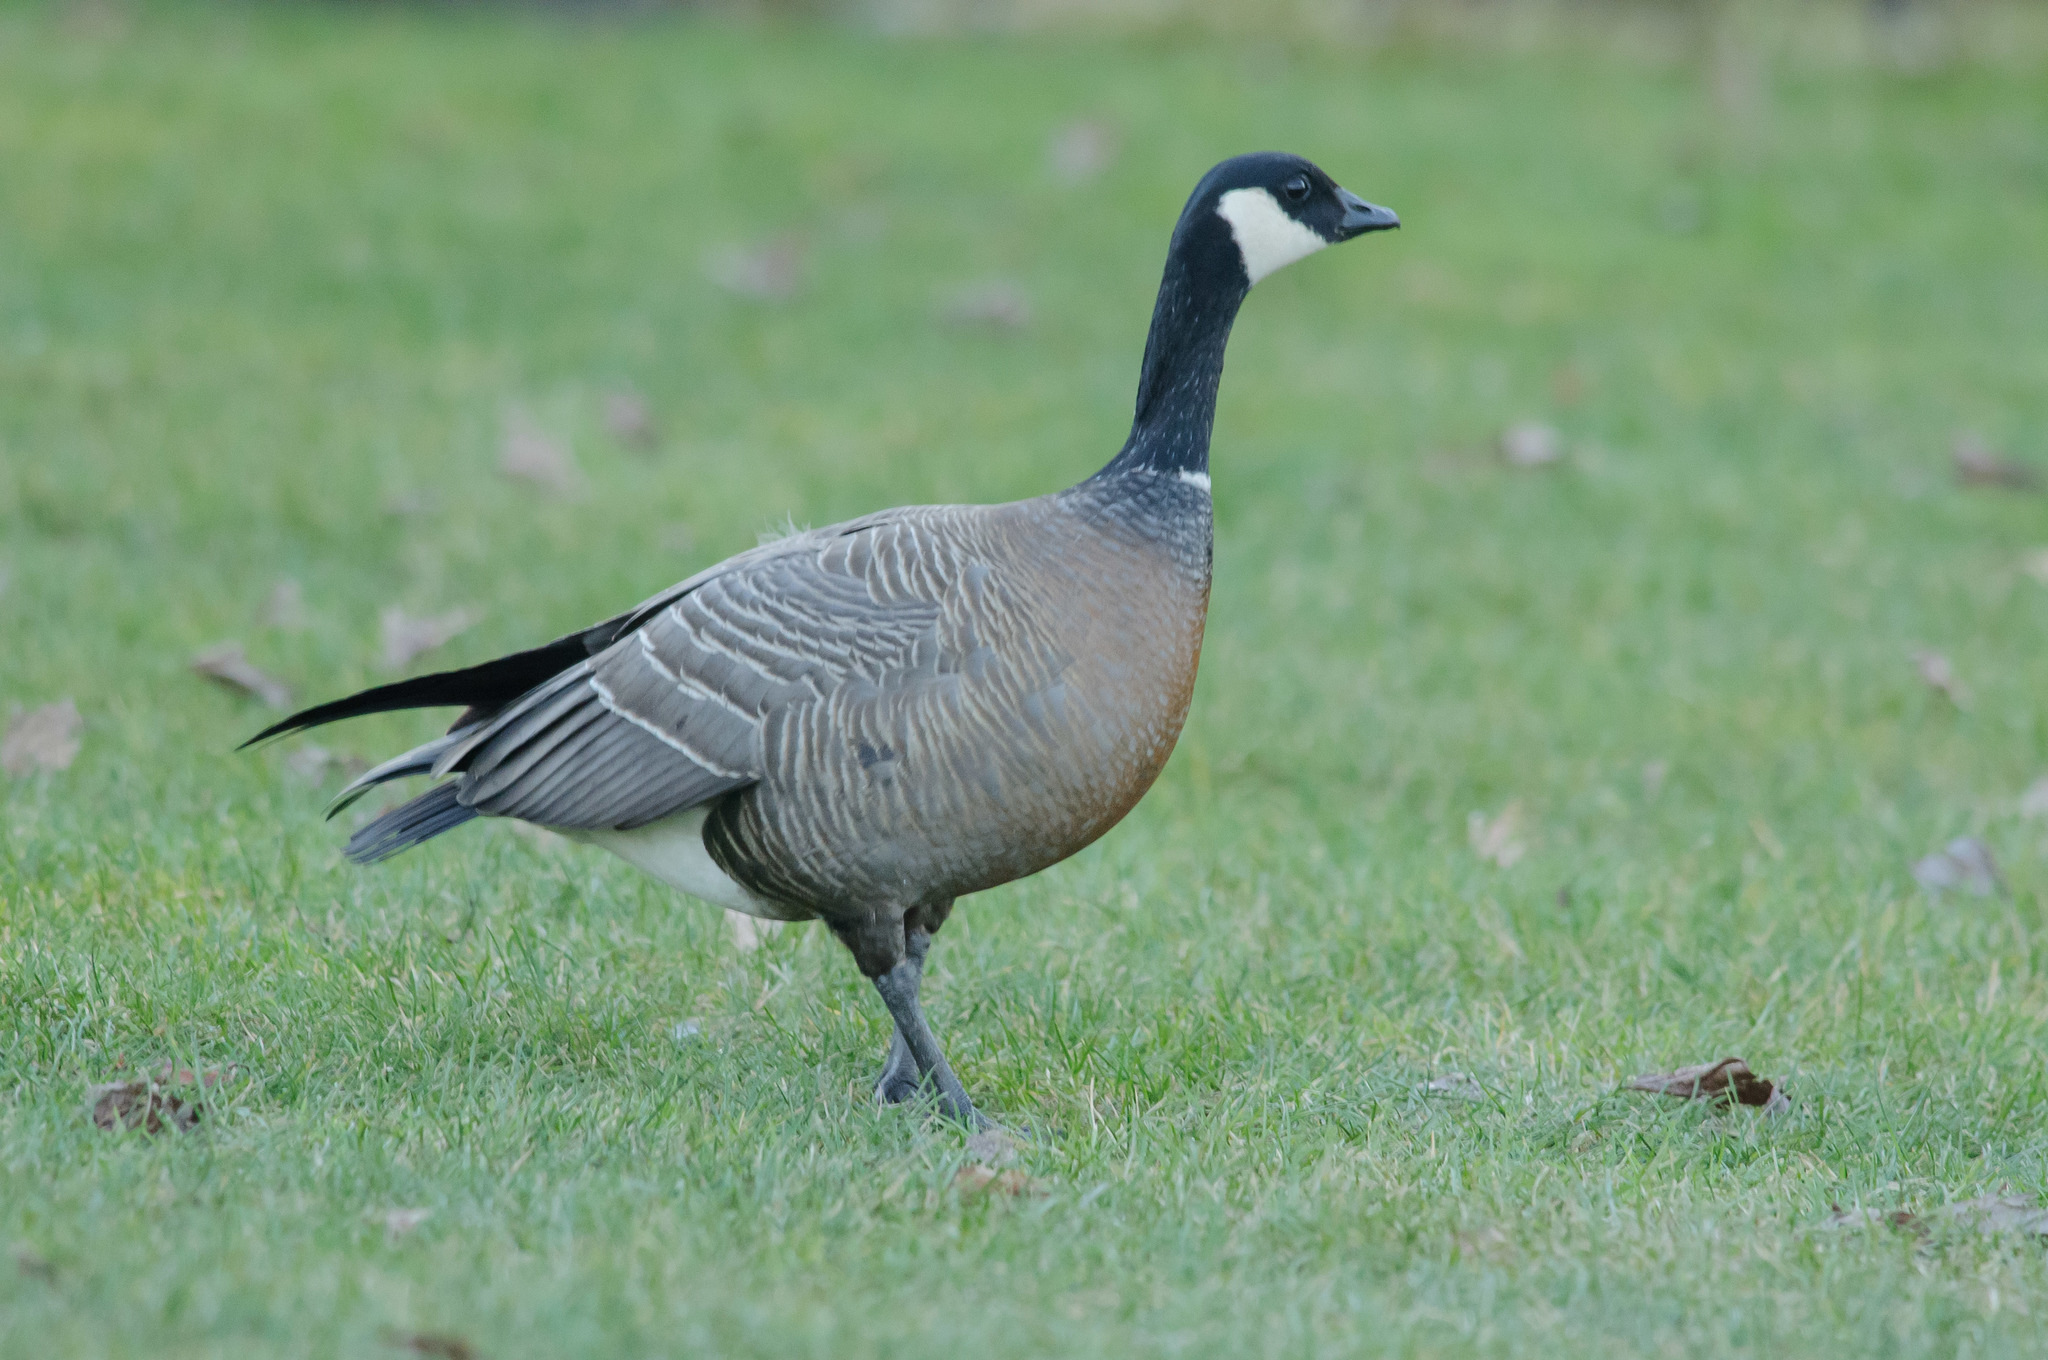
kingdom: Animalia
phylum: Chordata
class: Aves
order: Anseriformes
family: Anatidae
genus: Branta
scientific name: Branta hutchinsii
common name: Cackling goose
